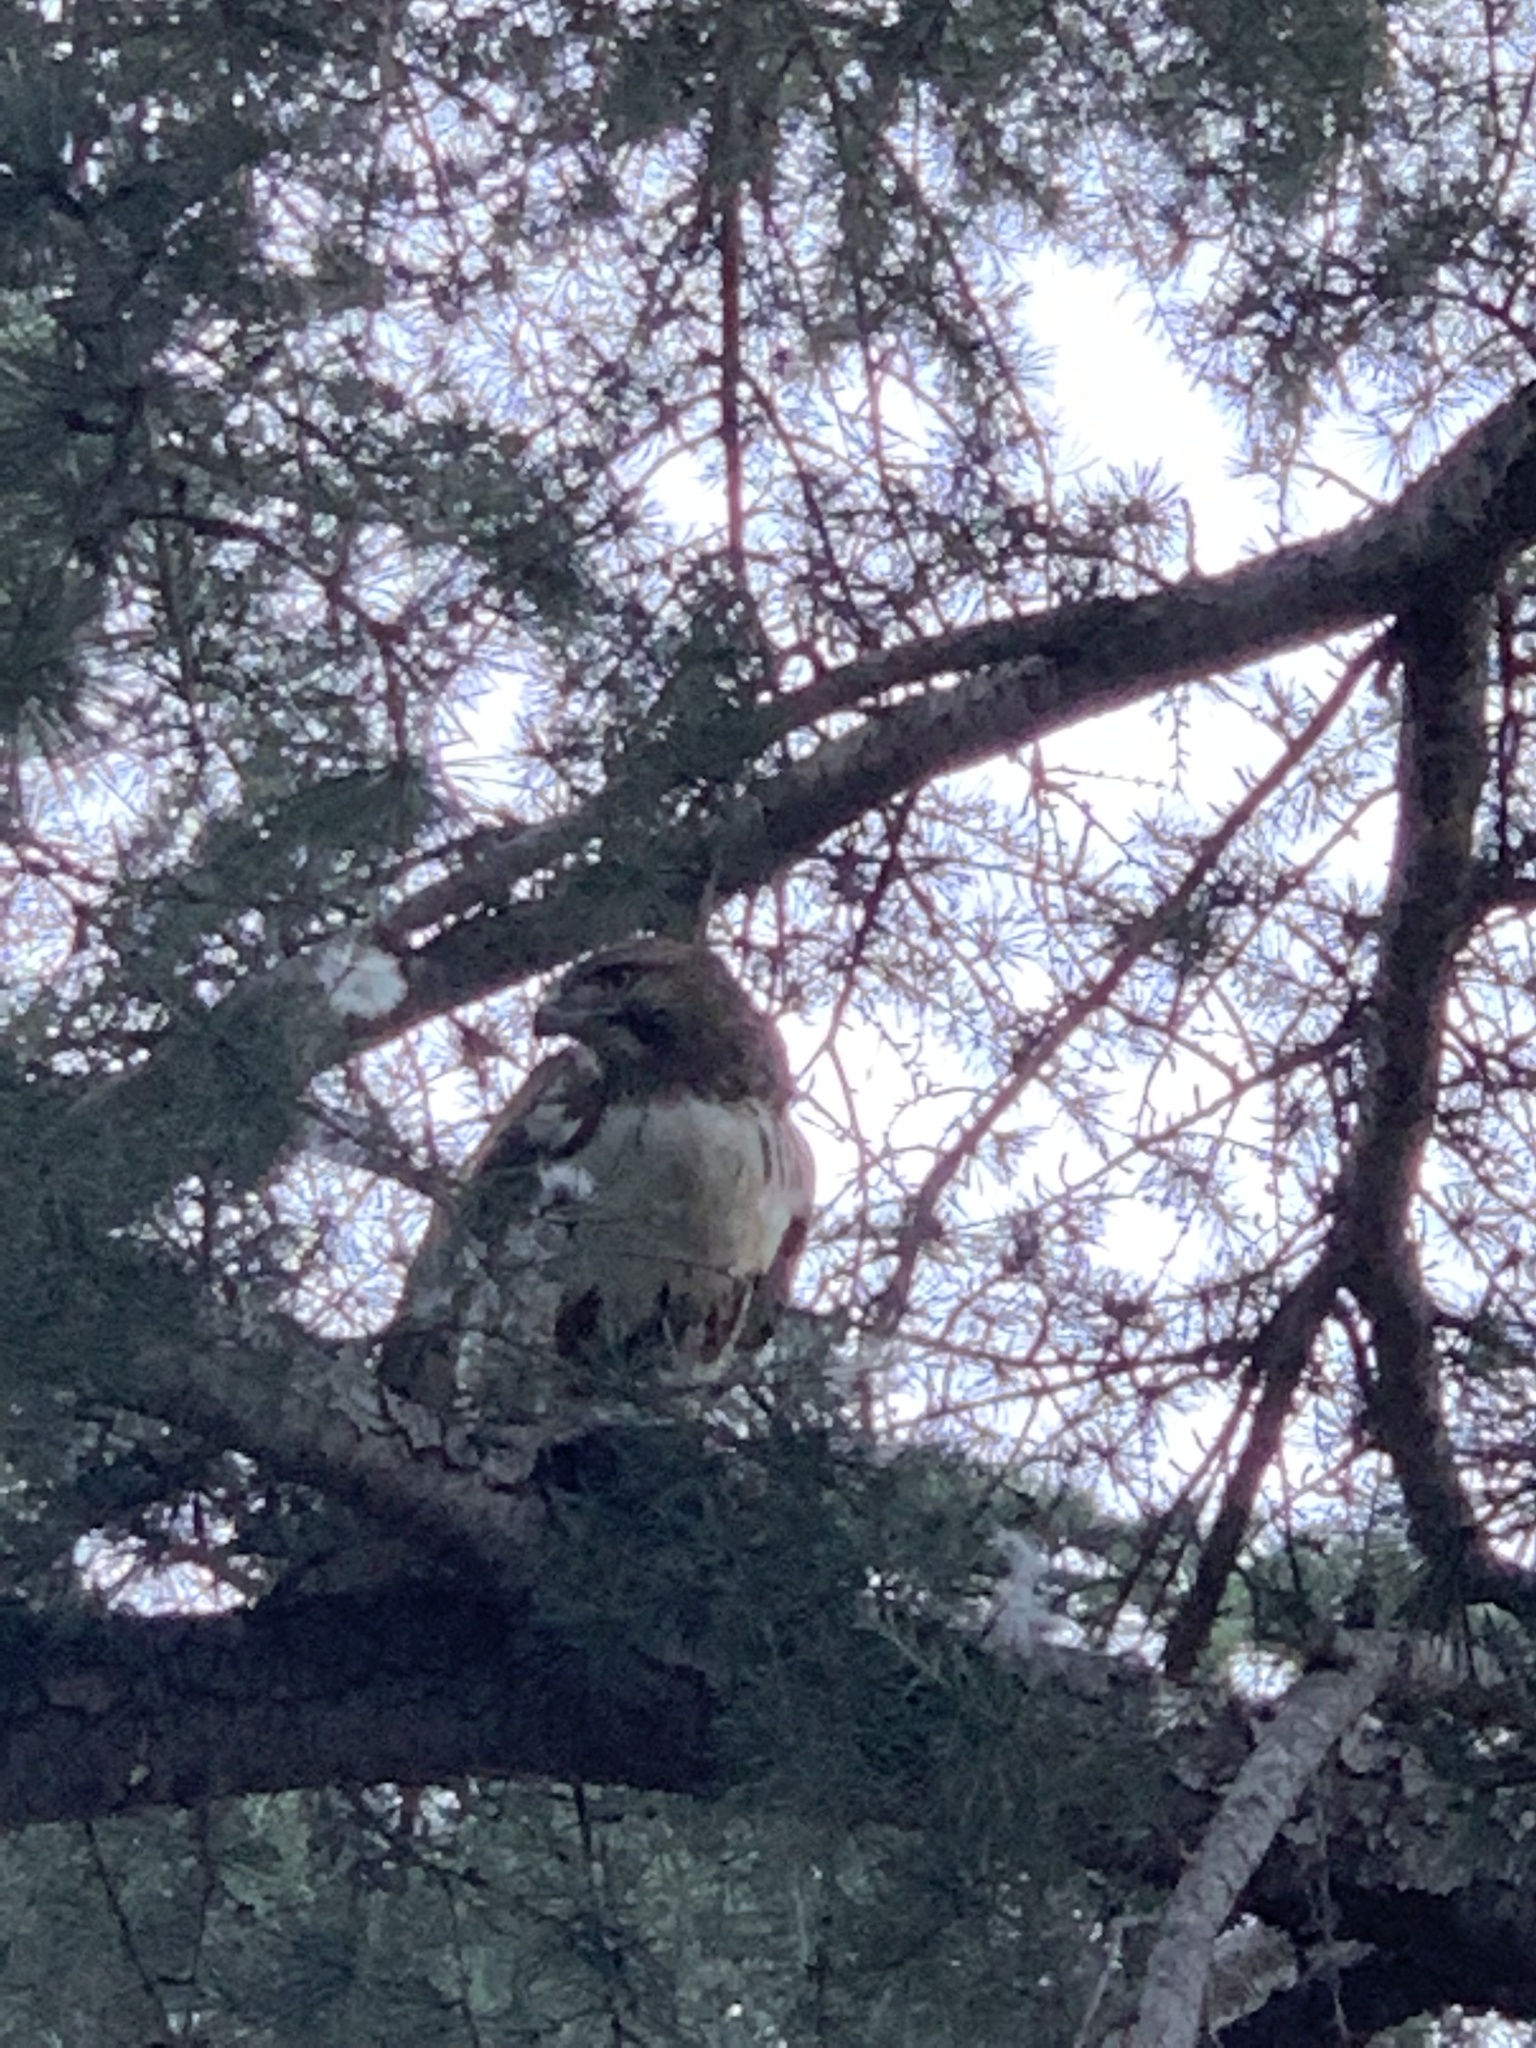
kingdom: Animalia
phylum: Chordata
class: Aves
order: Accipitriformes
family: Accipitridae
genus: Buteo
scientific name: Buteo jamaicensis
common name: Red-tailed hawk
